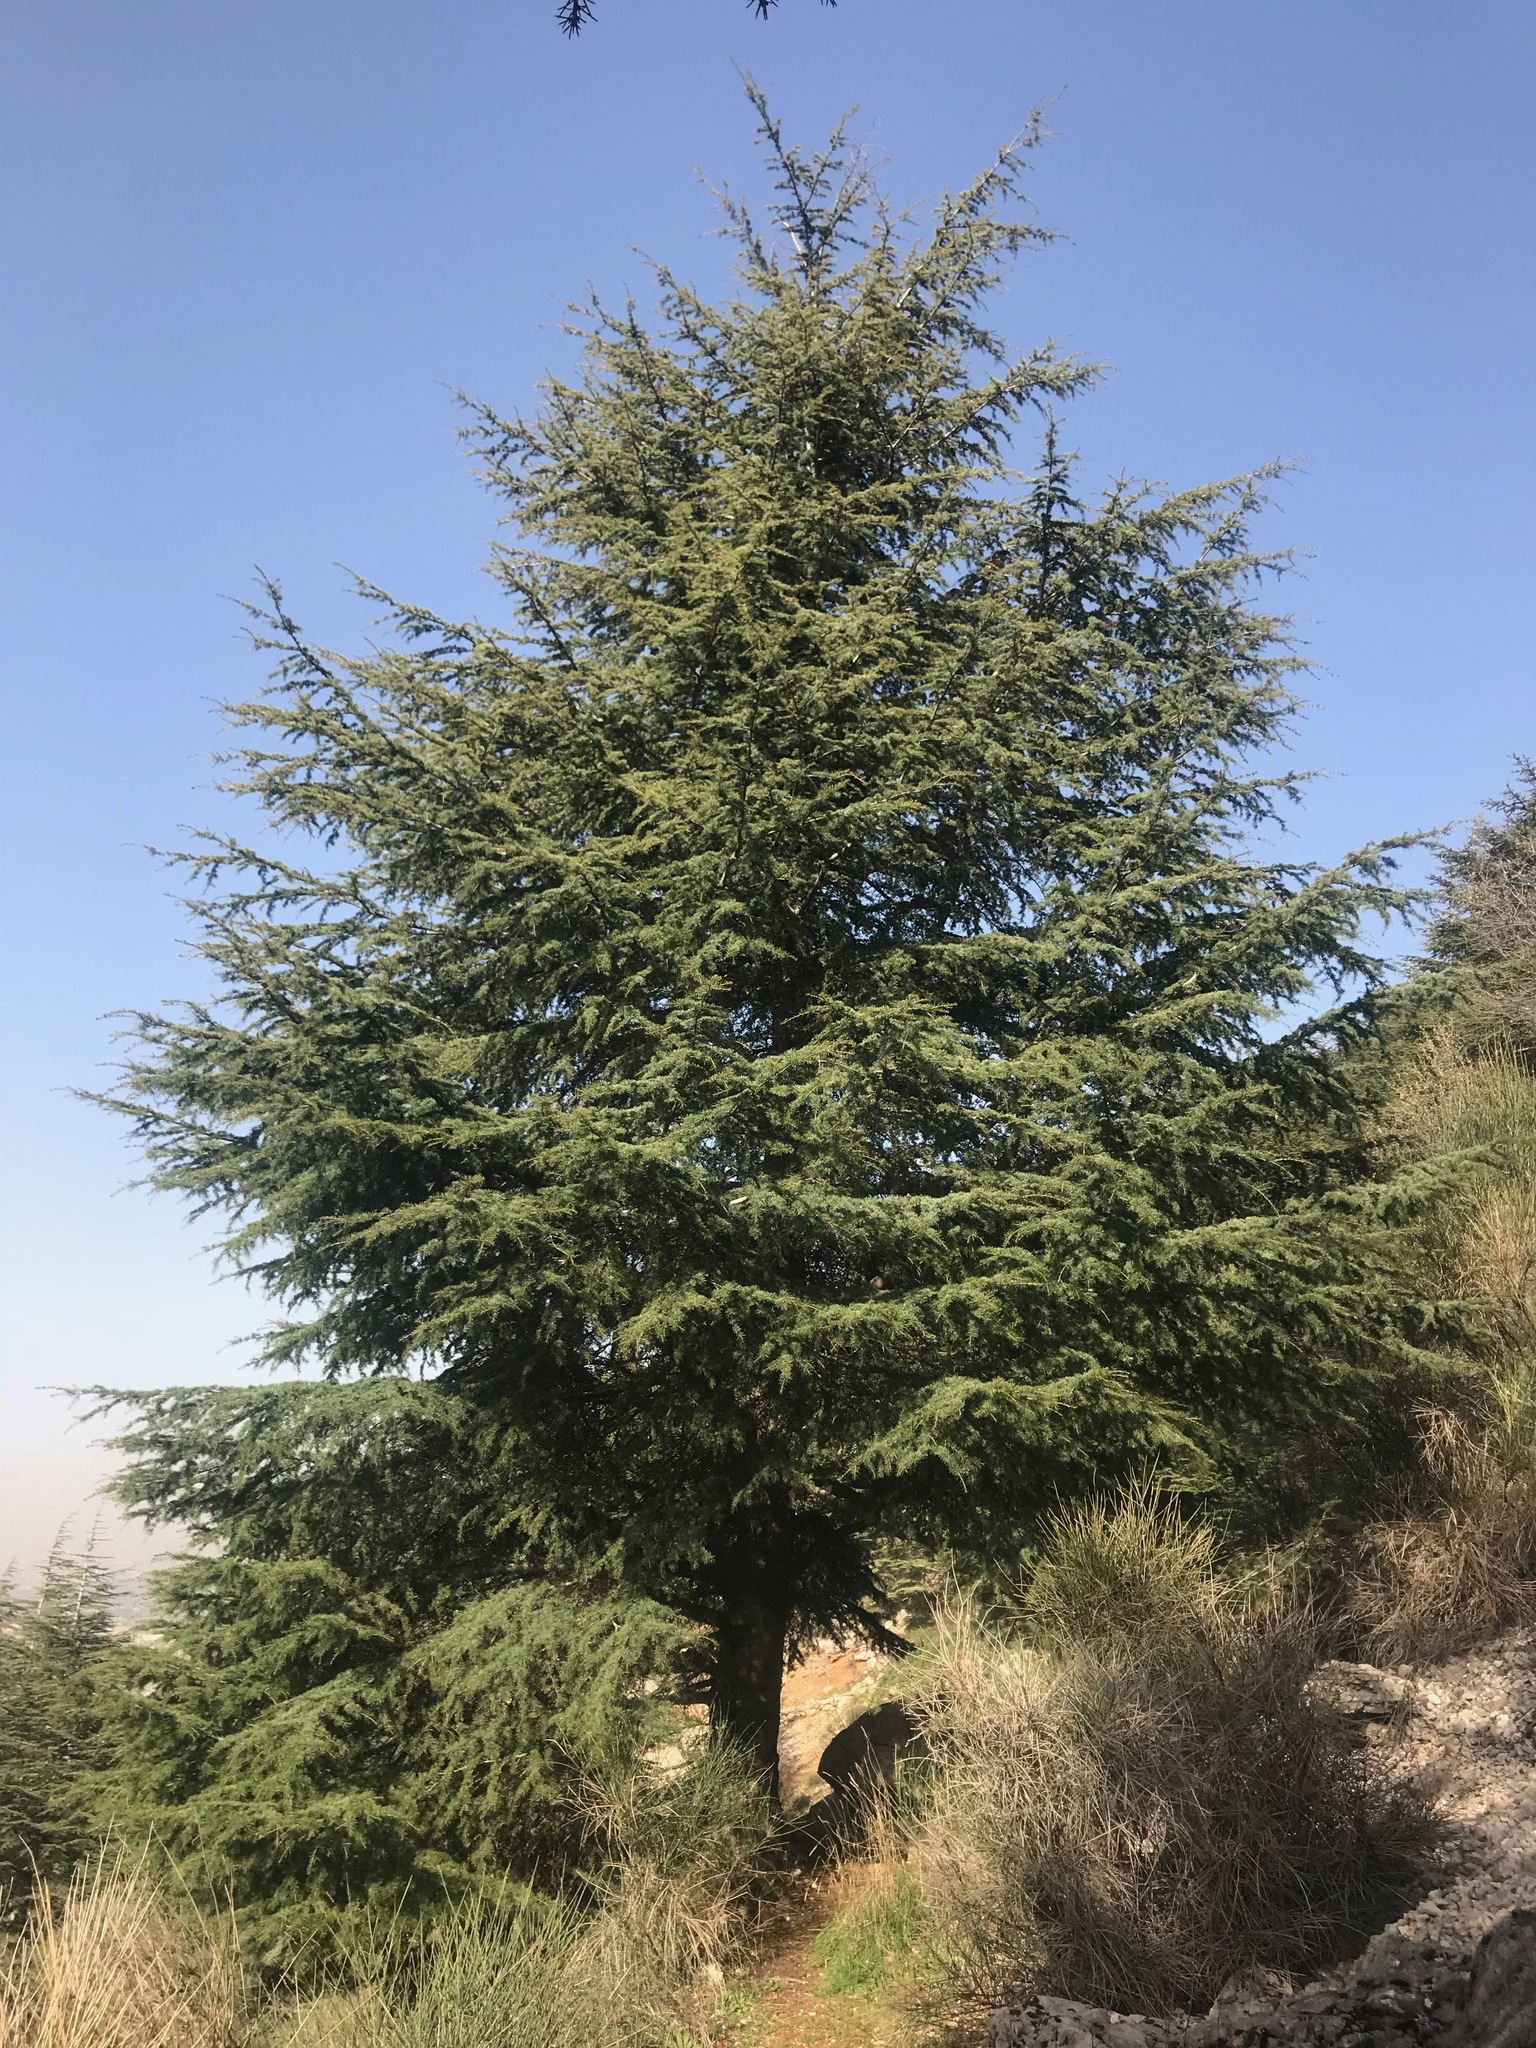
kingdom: Plantae
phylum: Tracheophyta
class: Pinopsida
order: Pinales
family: Pinaceae
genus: Cedrus
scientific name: Cedrus libani
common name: Cedar-of-lebanon
